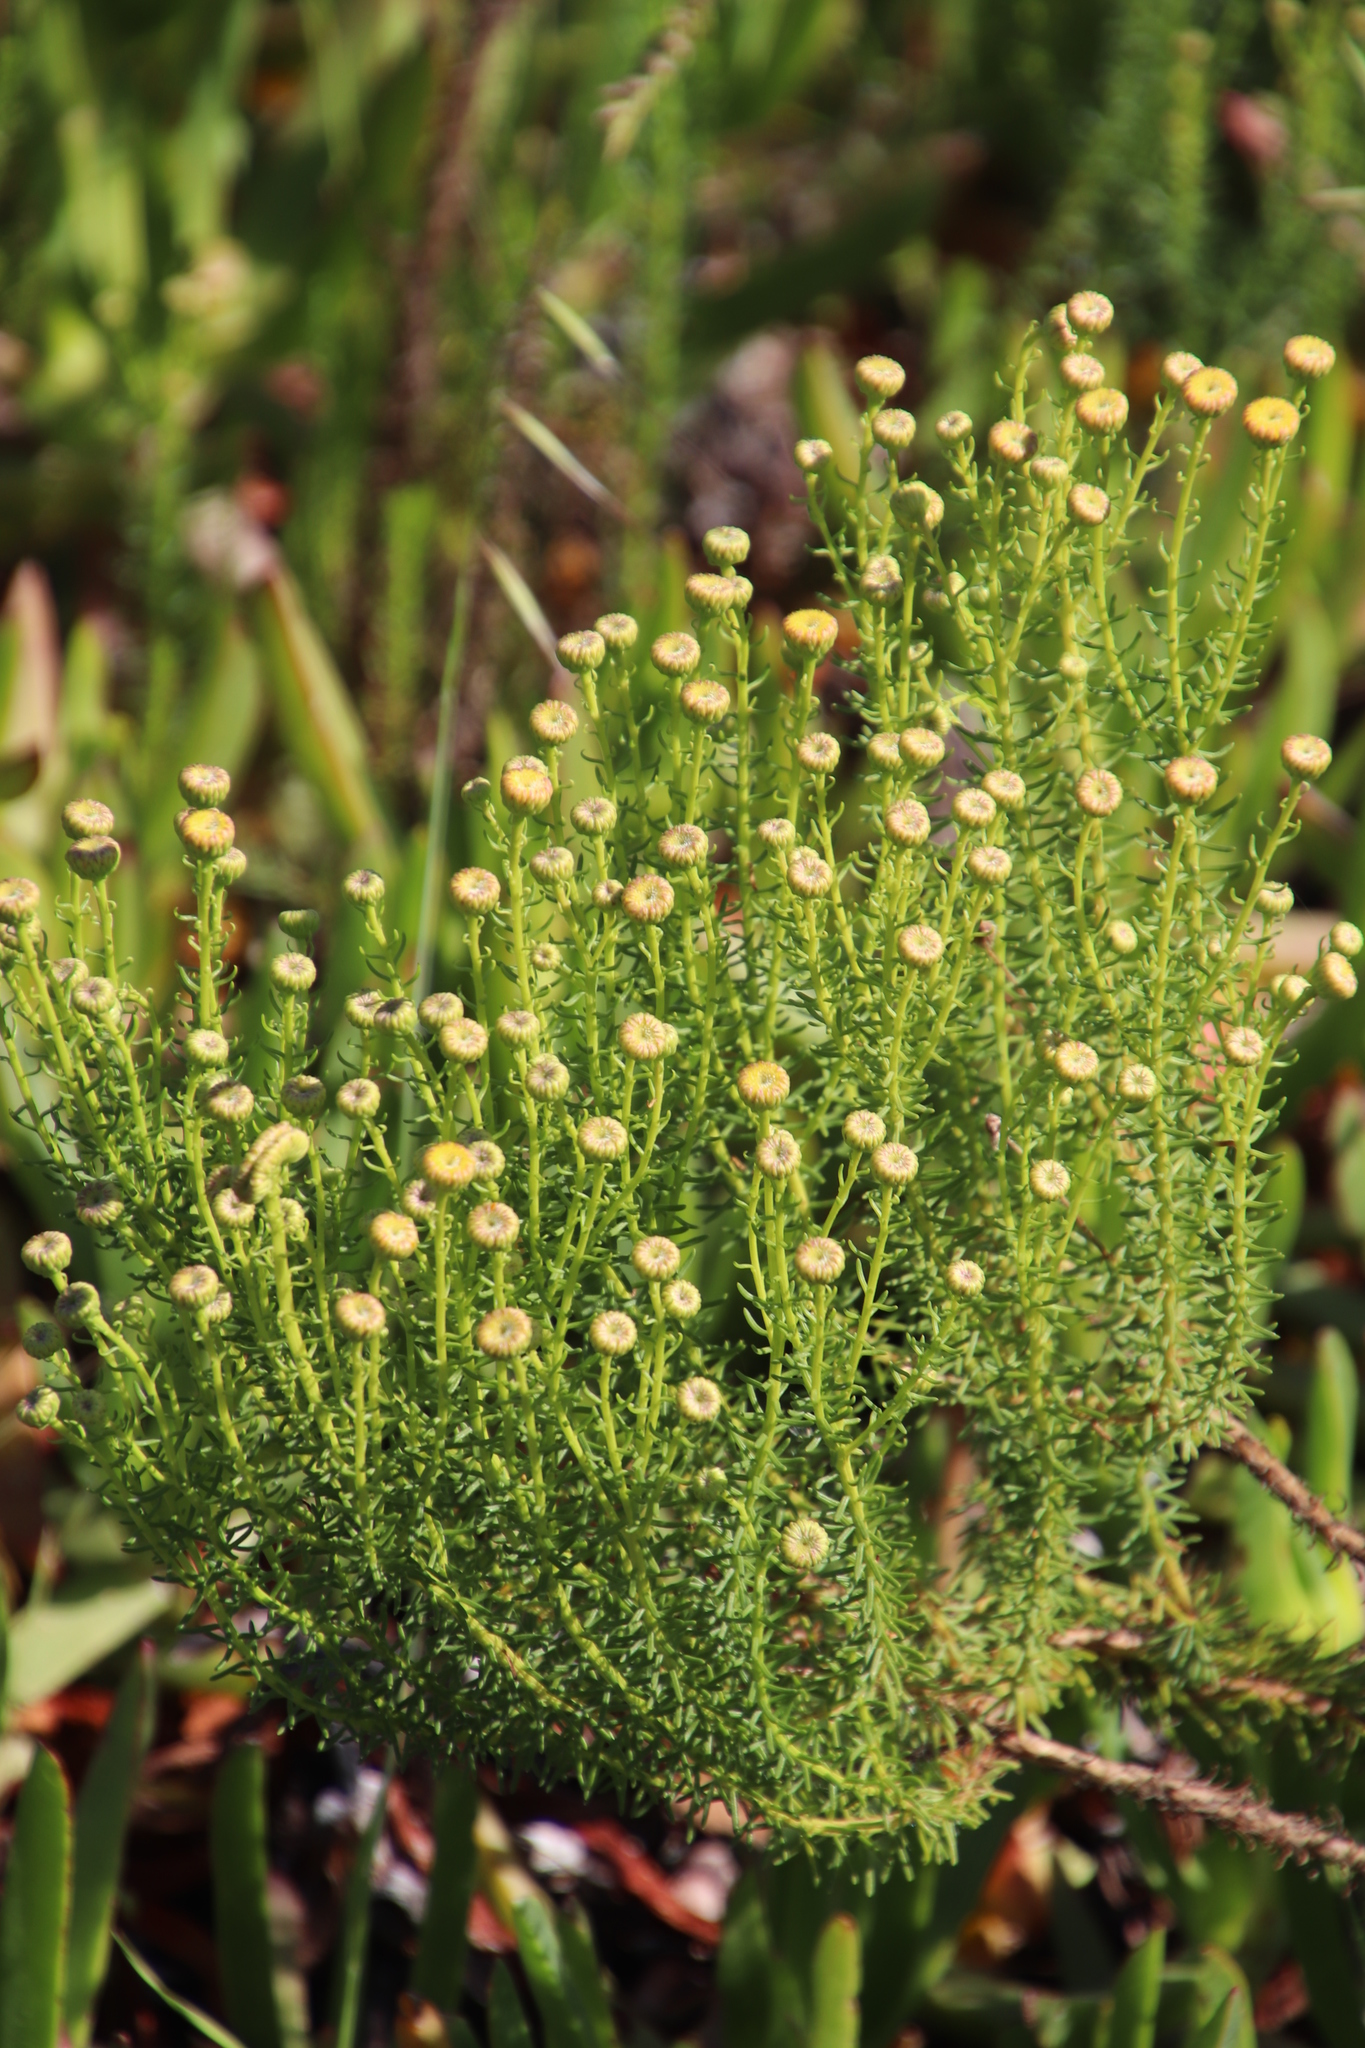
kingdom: Plantae
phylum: Tracheophyta
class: Magnoliopsida
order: Asterales
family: Asteraceae
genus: Chrysocoma
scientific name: Chrysocoma cernua
